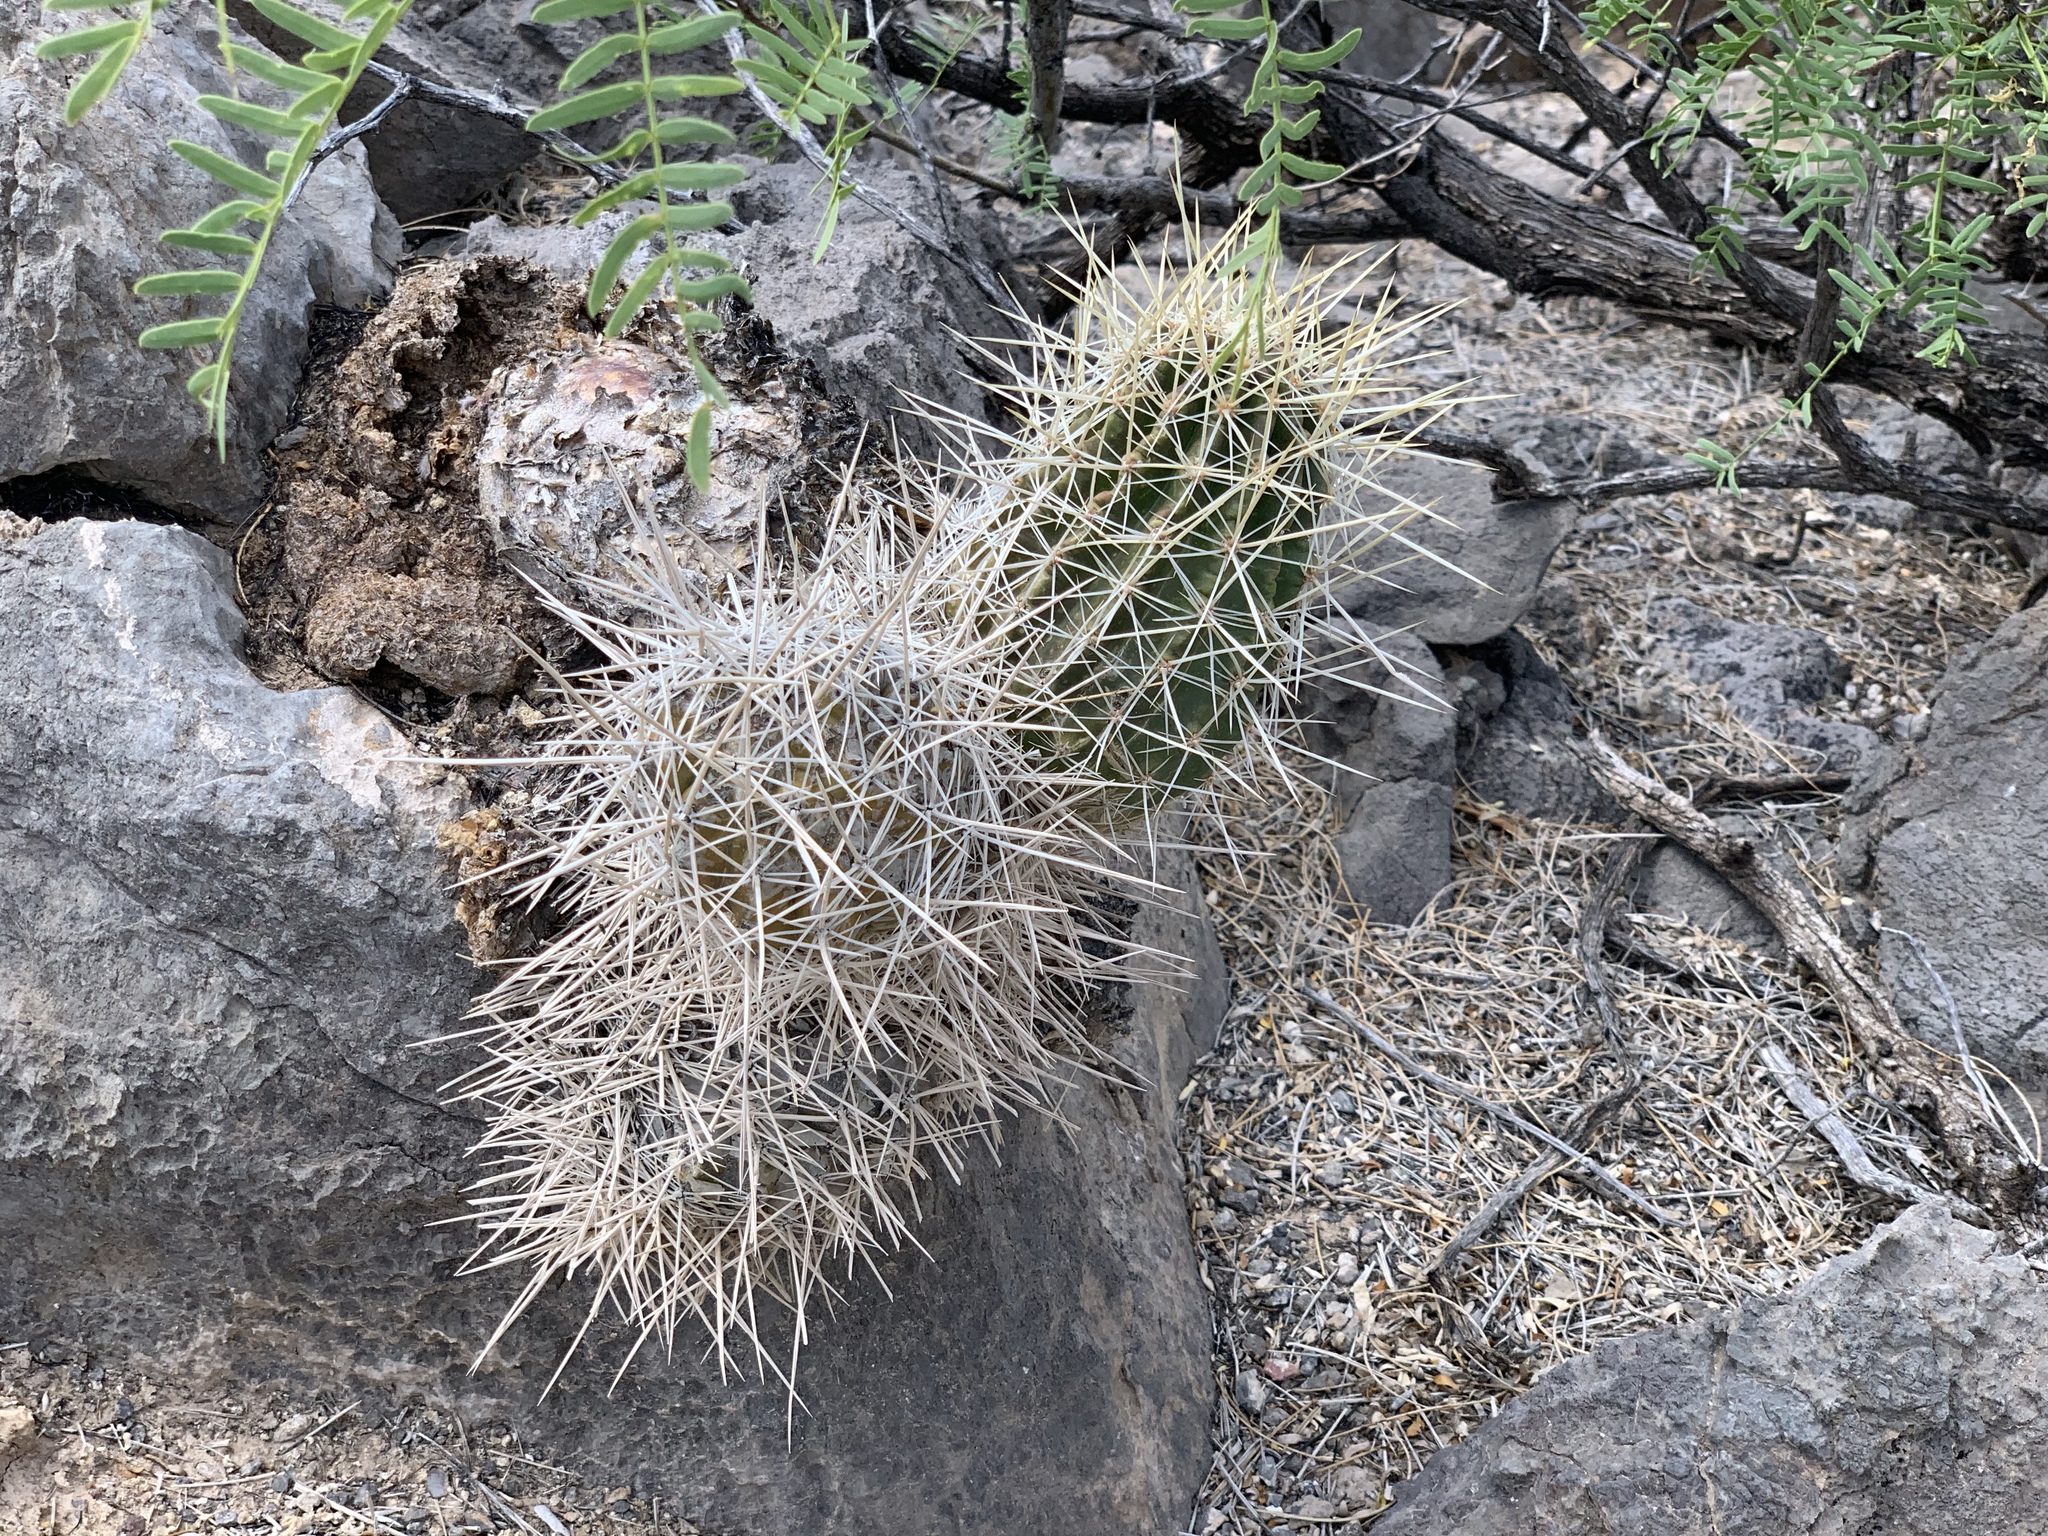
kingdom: Plantae
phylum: Tracheophyta
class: Magnoliopsida
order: Caryophyllales
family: Cactaceae
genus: Echinocereus
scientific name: Echinocereus stramineus
